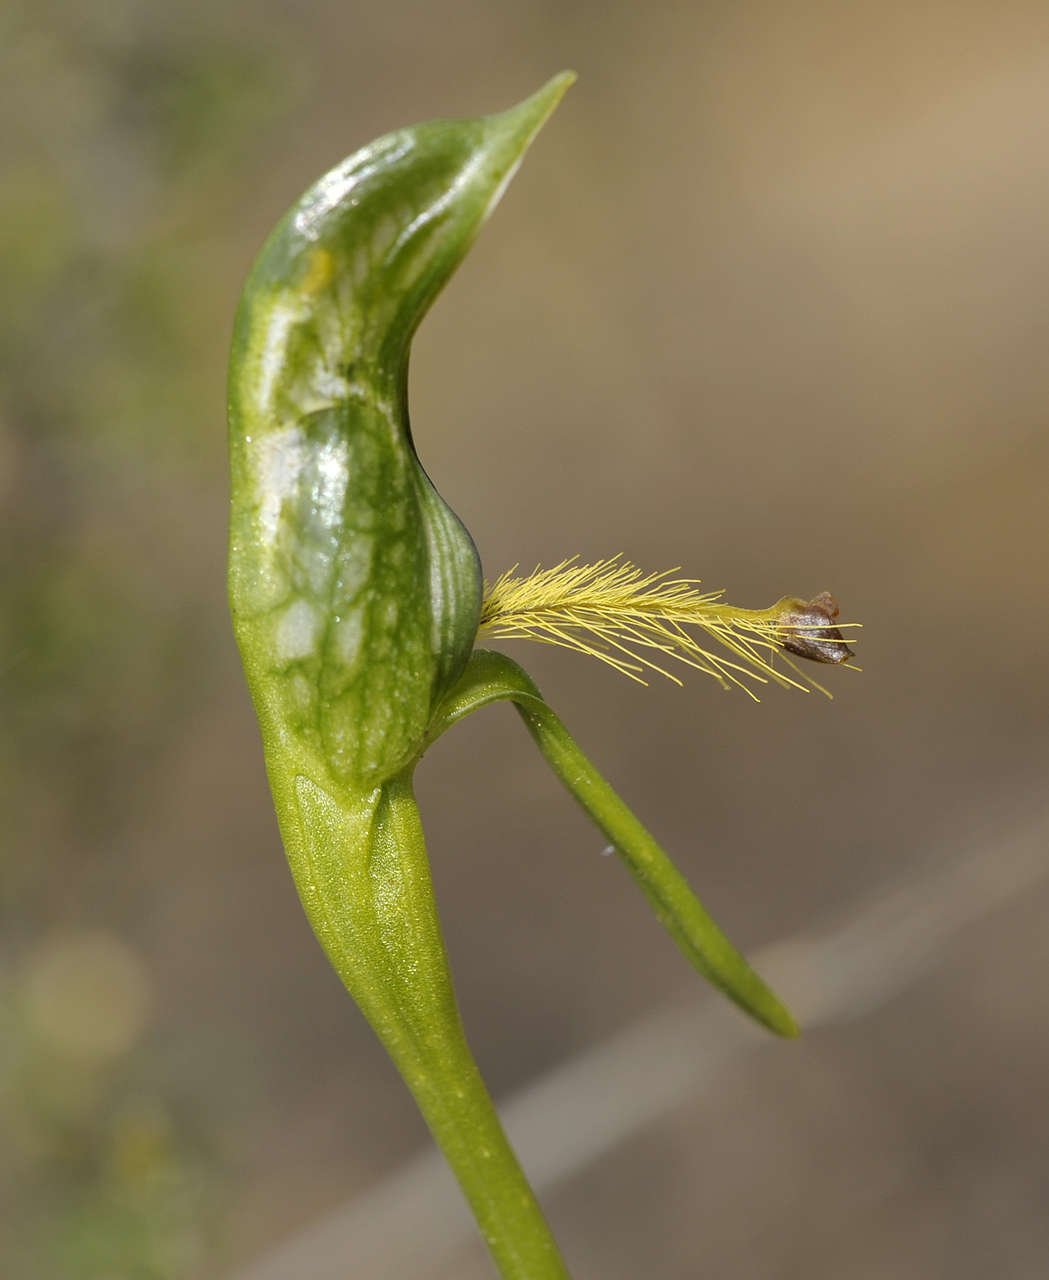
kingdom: Plantae
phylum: Tracheophyta
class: Liliopsida
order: Asparagales
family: Orchidaceae
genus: Pterostylis
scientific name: Pterostylis plumosa
